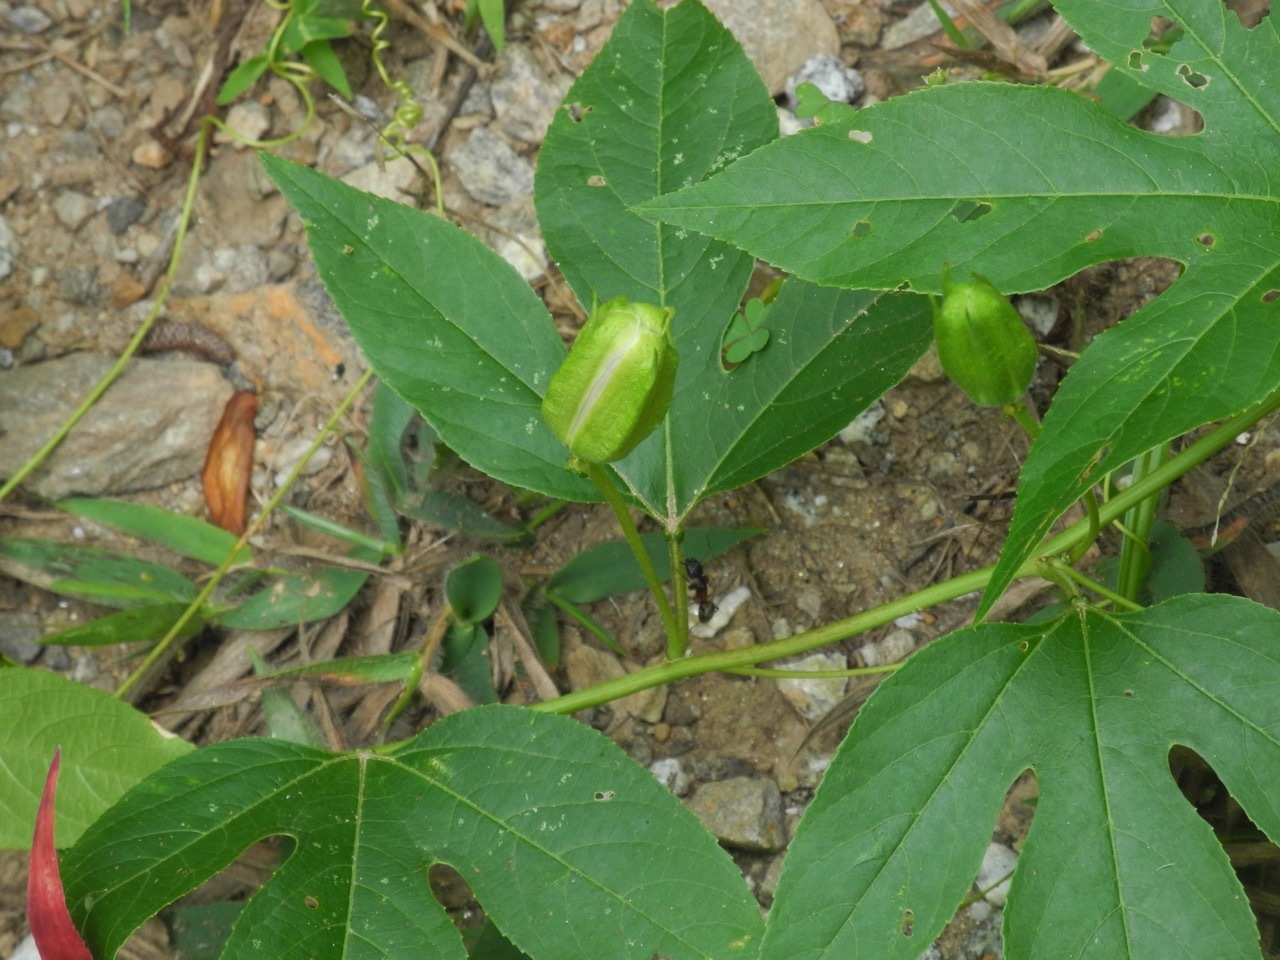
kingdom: Plantae
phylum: Tracheophyta
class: Magnoliopsida
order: Malpighiales
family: Passifloraceae
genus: Passiflora
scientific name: Passiflora incarnata
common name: Apricot-vine
